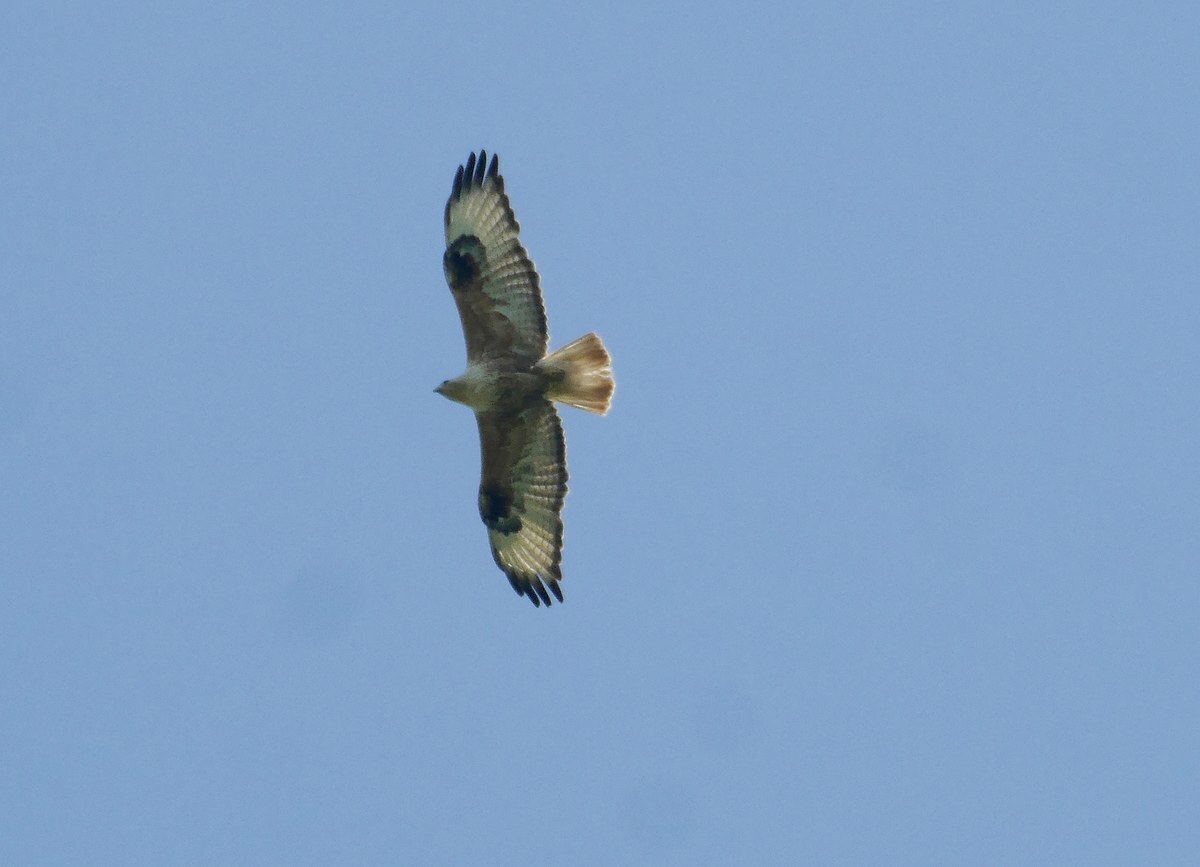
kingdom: Animalia
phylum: Chordata
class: Aves
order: Accipitriformes
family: Accipitridae
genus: Buteo
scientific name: Buteo rufinus
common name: Long-legged buzzard
